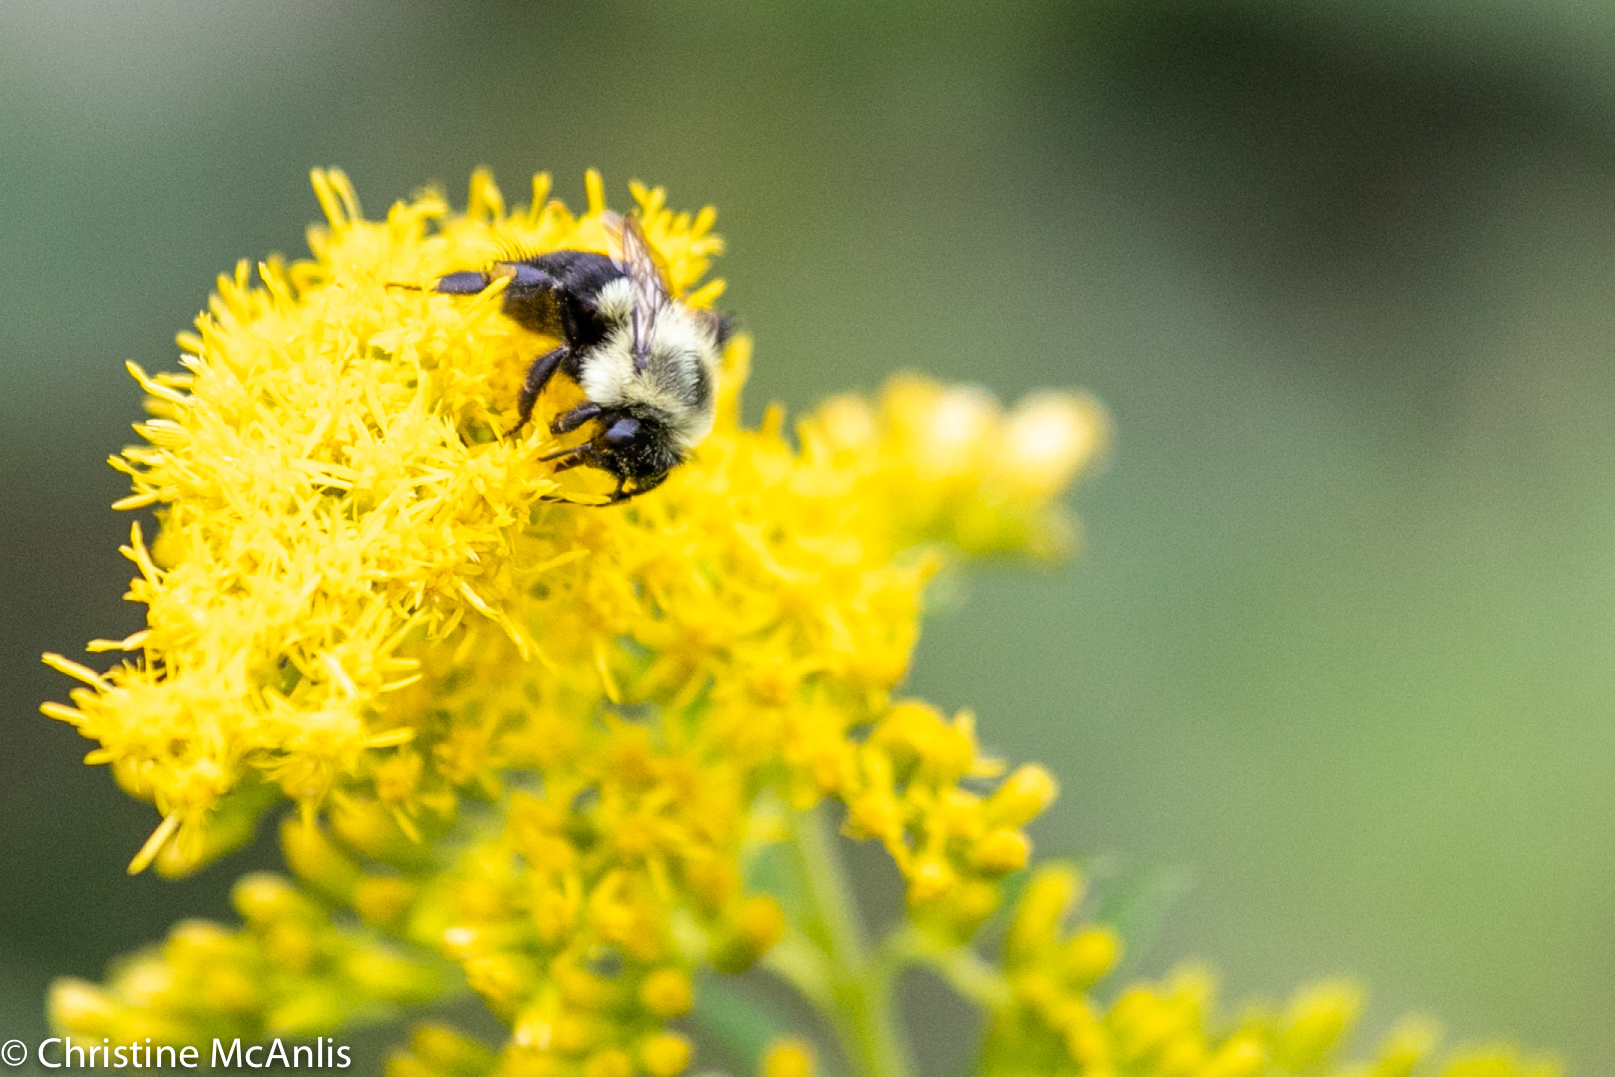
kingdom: Animalia
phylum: Arthropoda
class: Insecta
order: Hymenoptera
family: Apidae
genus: Bombus
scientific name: Bombus impatiens
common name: Common eastern bumble bee
